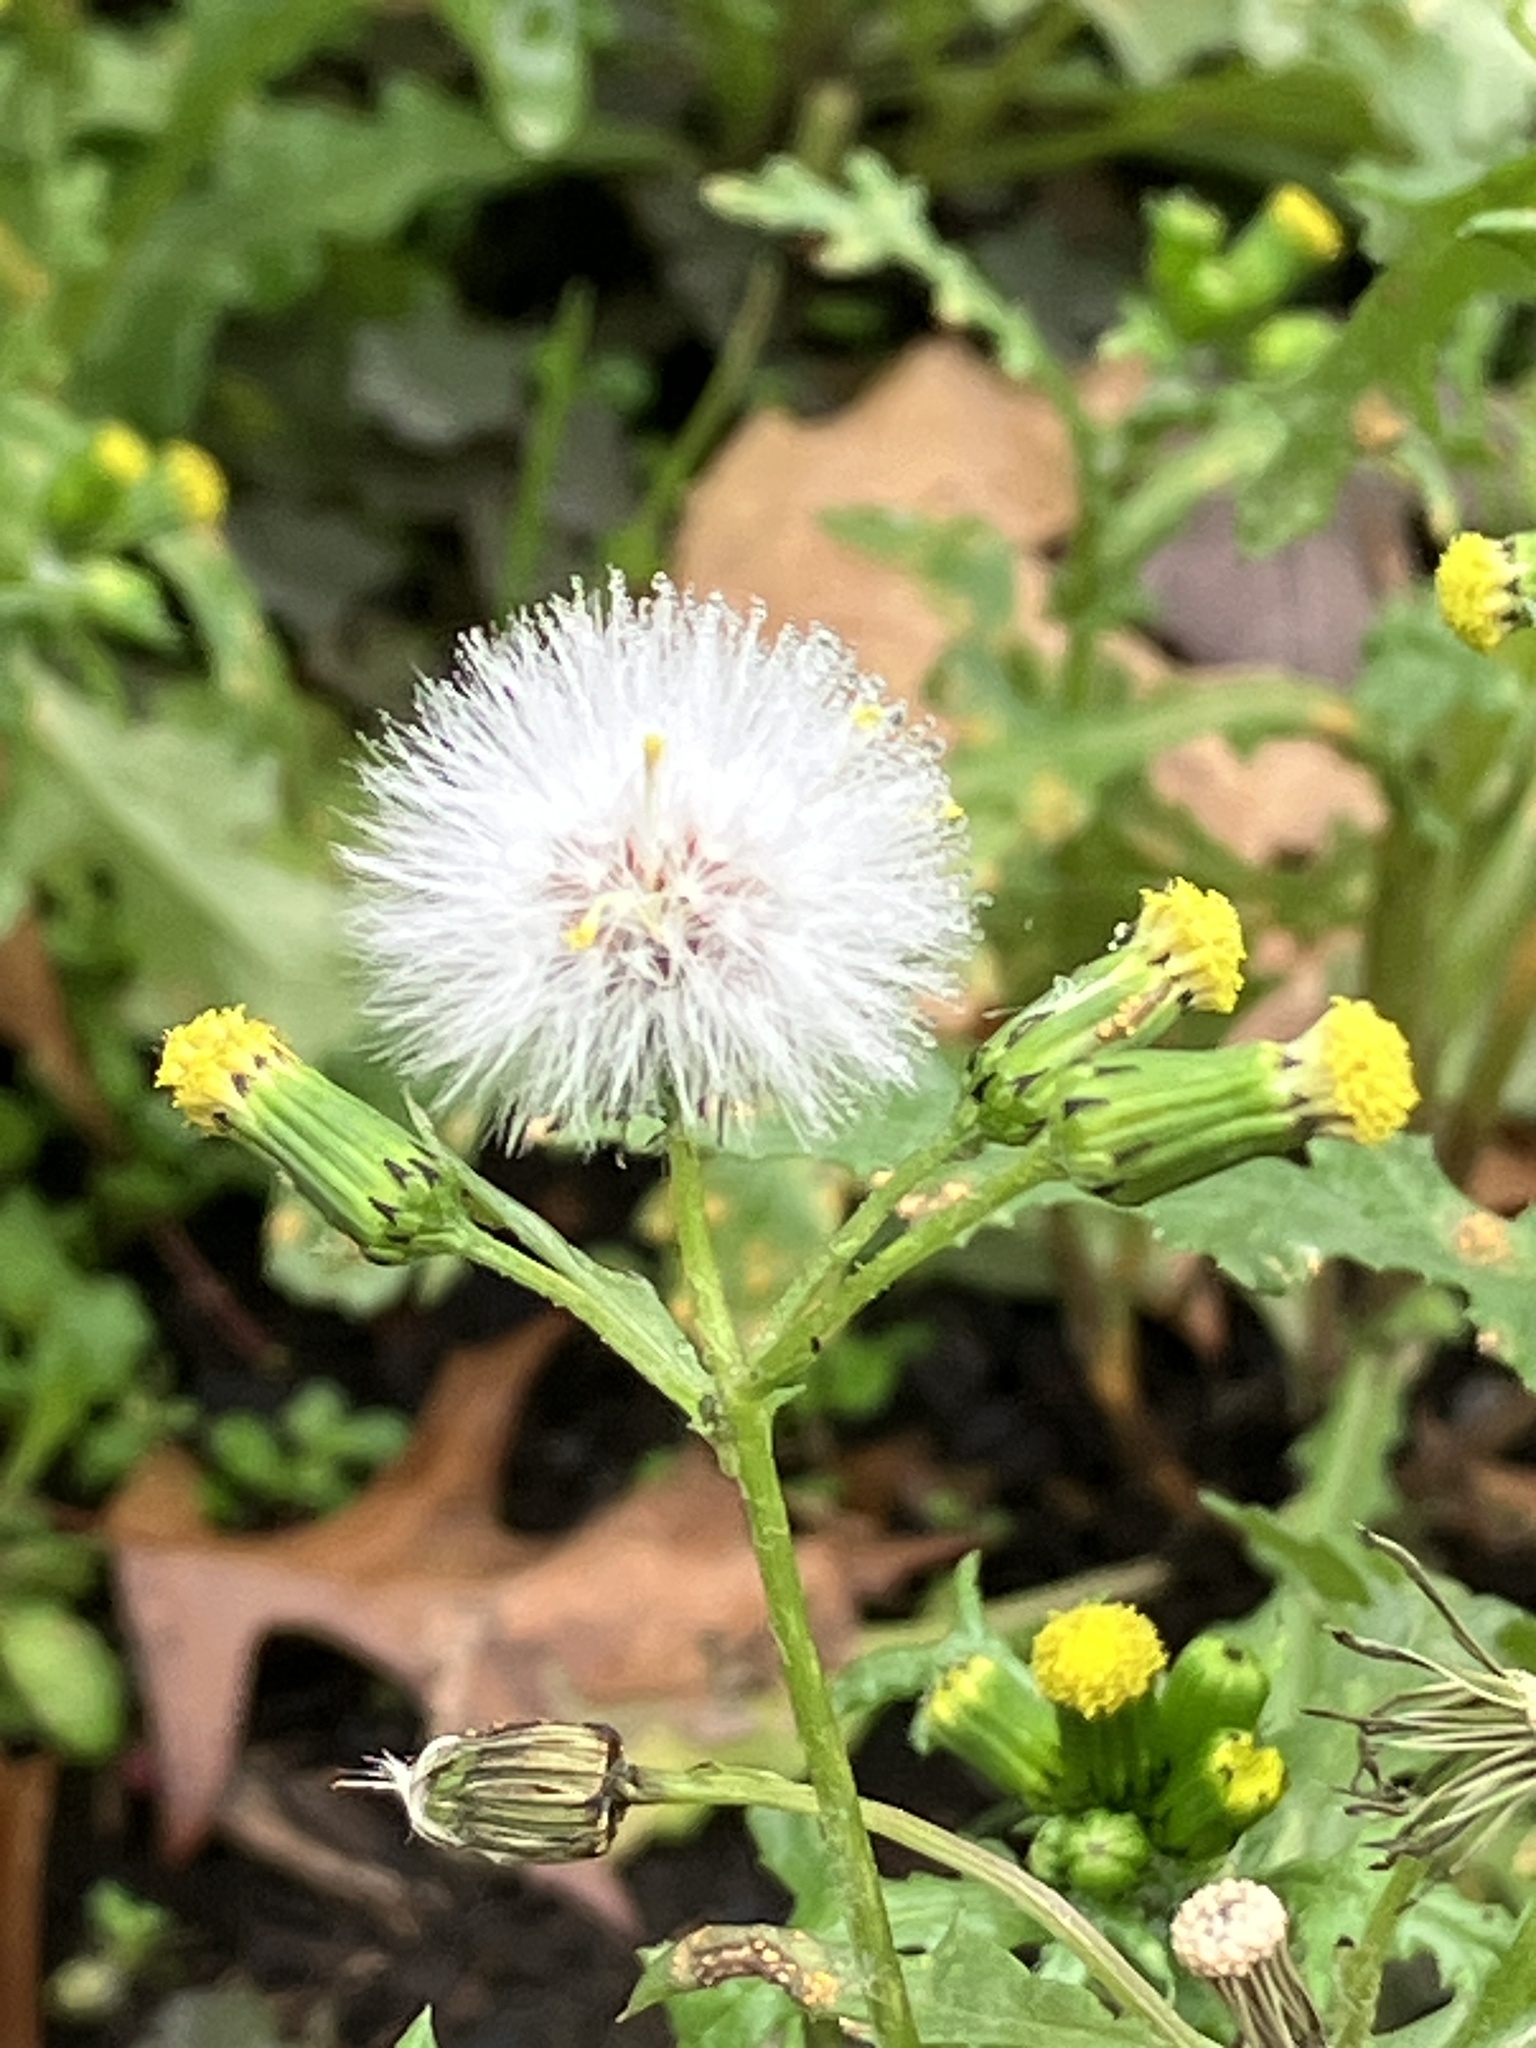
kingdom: Plantae
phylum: Tracheophyta
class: Magnoliopsida
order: Asterales
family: Asteraceae
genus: Senecio
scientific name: Senecio vulgaris
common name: Old-man-in-the-spring
